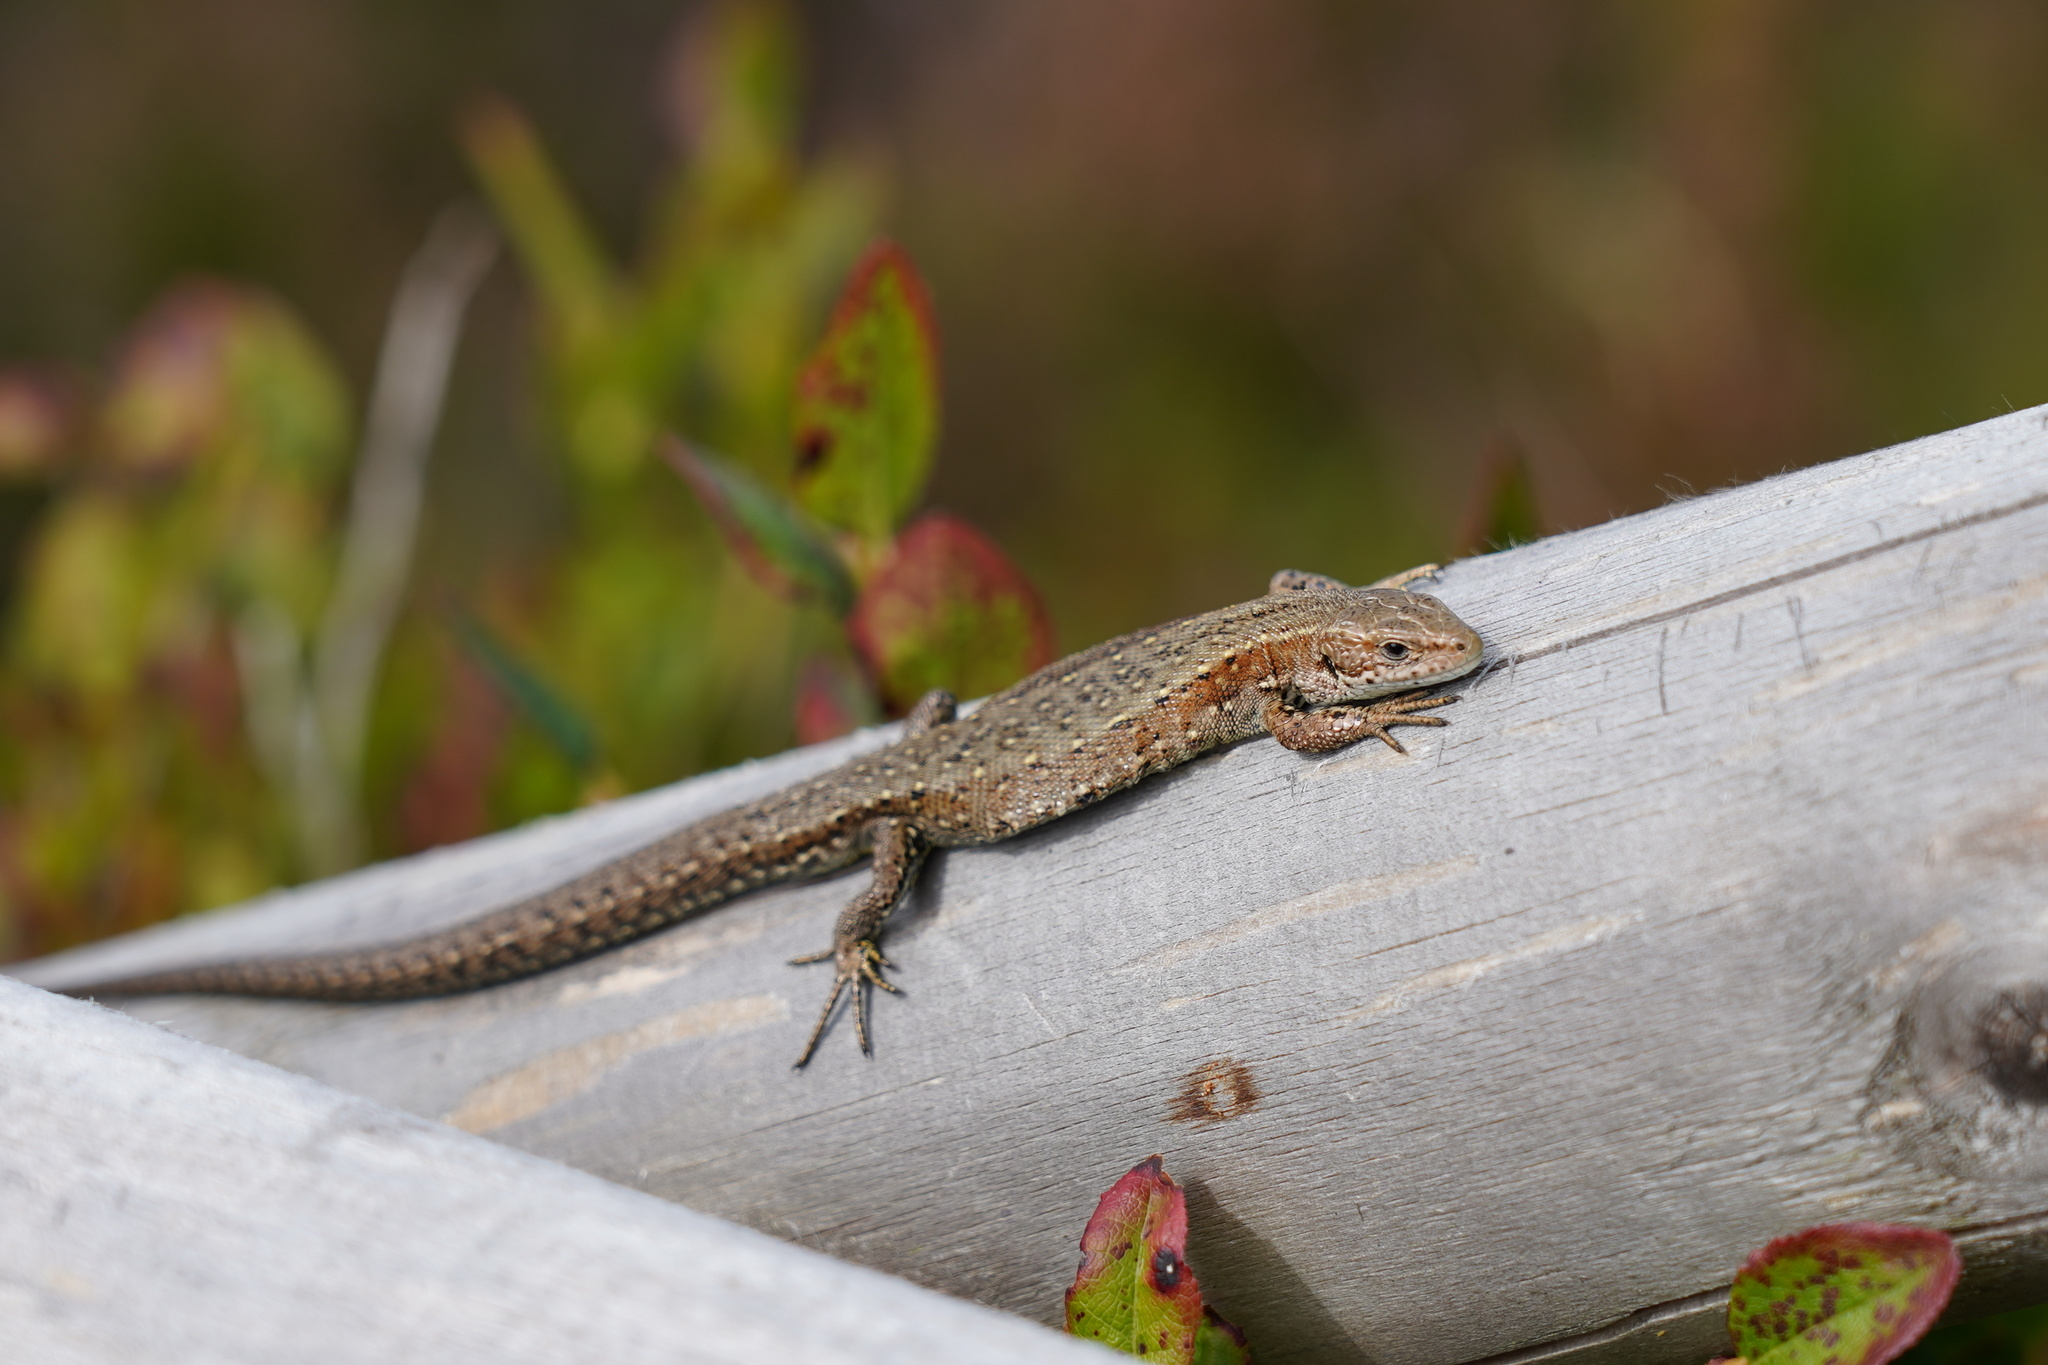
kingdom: Animalia
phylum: Chordata
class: Squamata
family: Lacertidae
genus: Zootoca
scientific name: Zootoca vivipara
